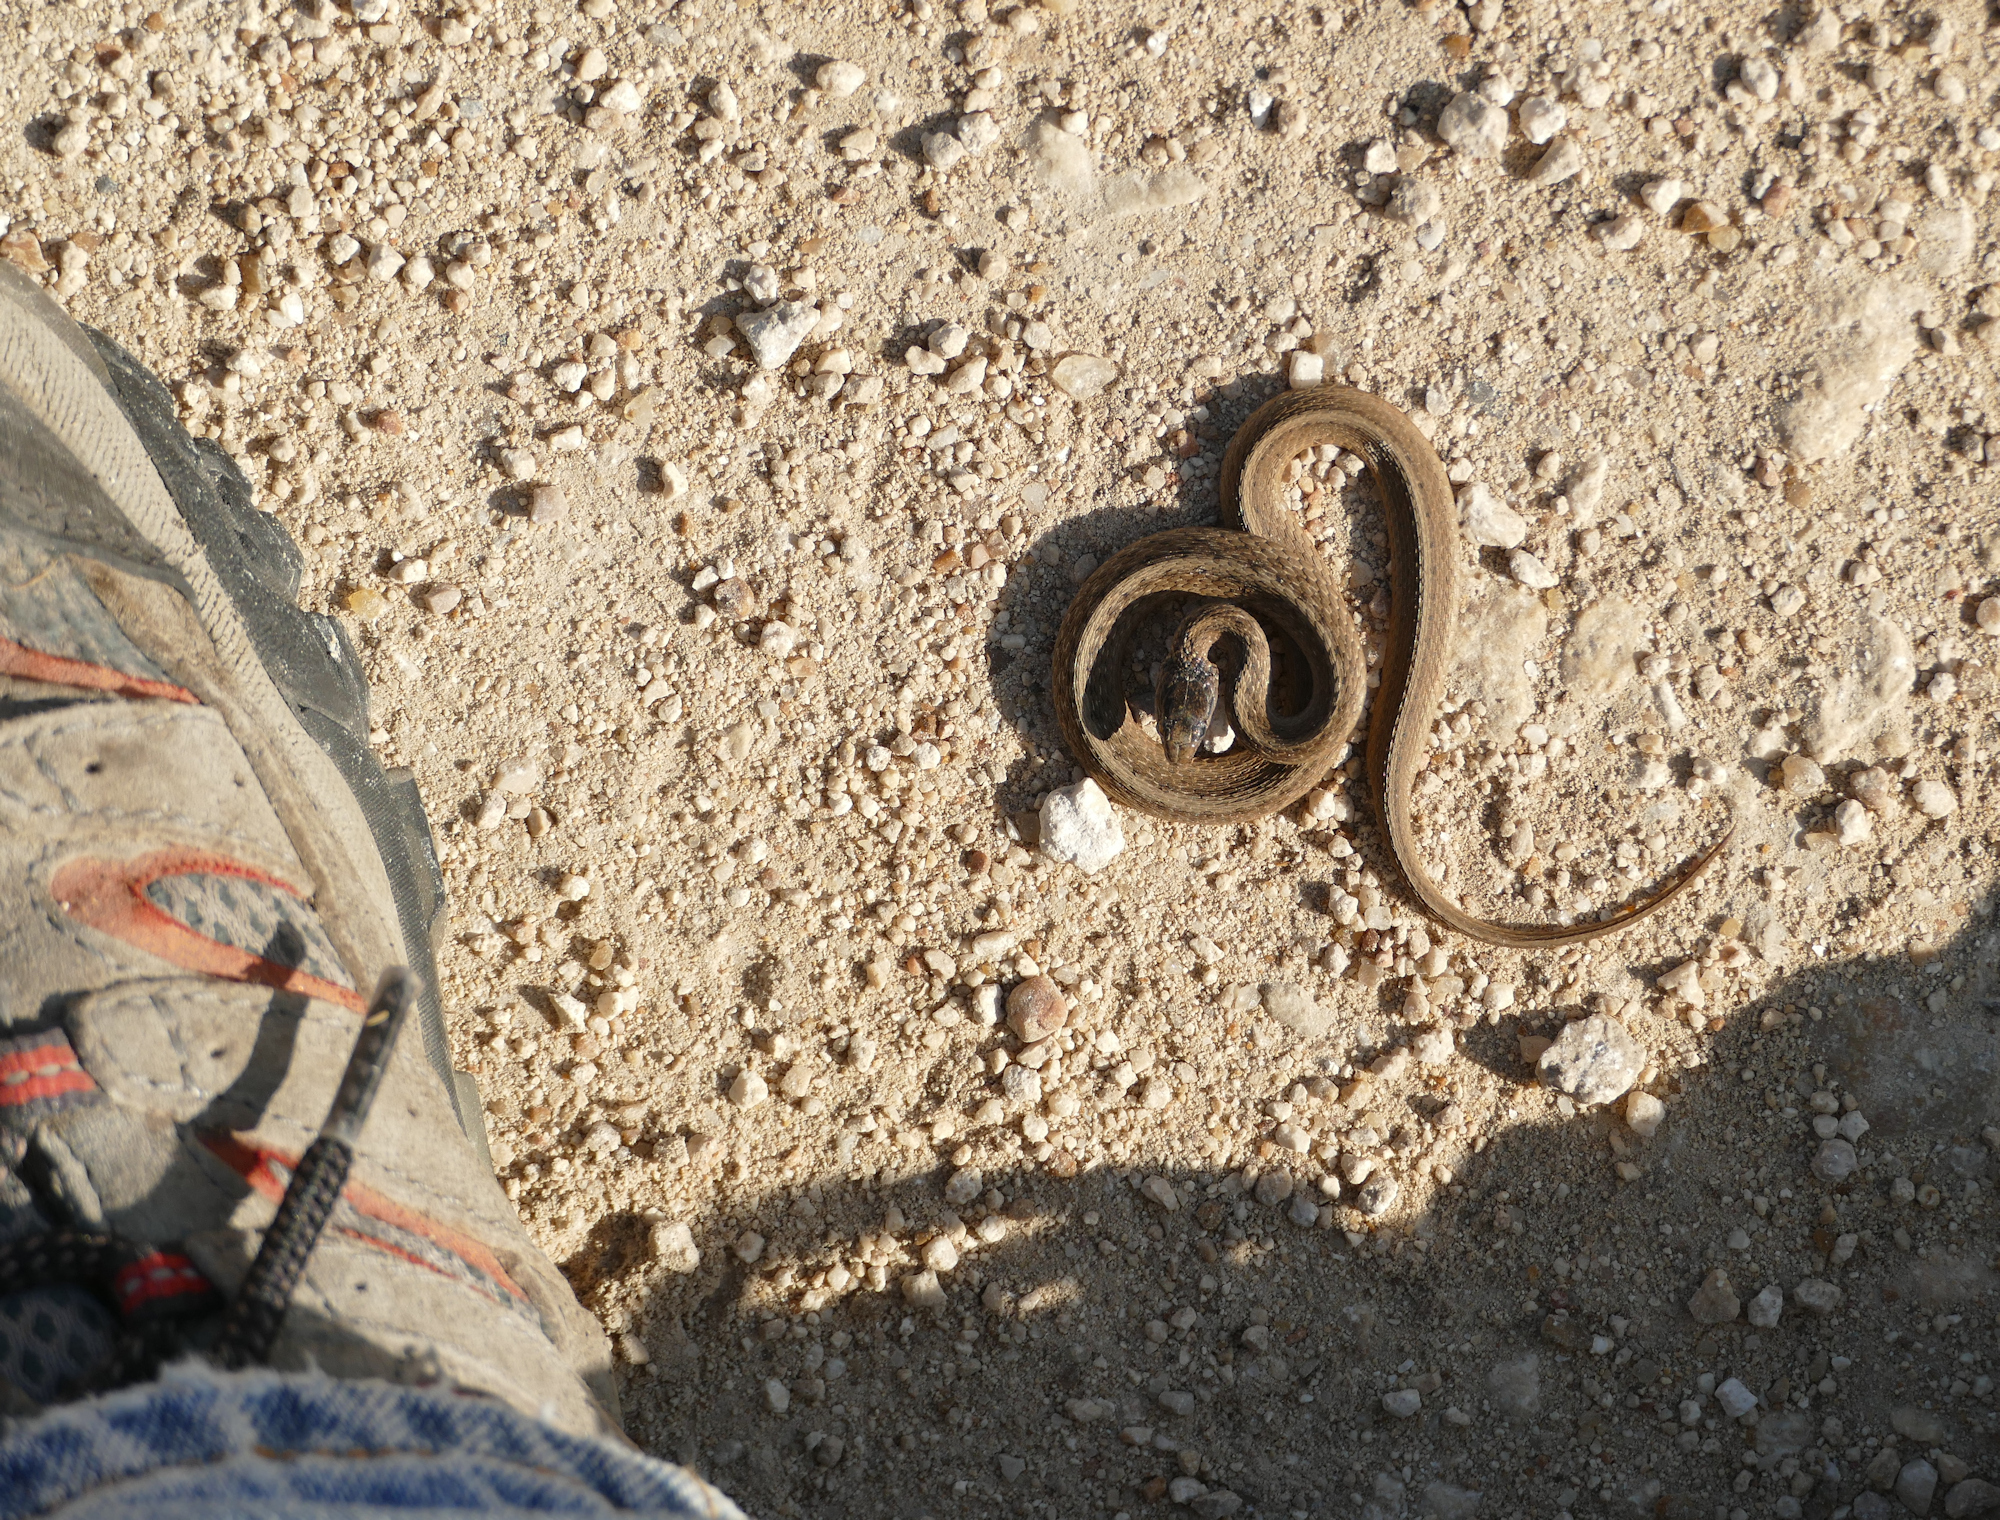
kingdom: Animalia
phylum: Chordata
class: Squamata
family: Colubridae
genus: Storeria
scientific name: Storeria dekayi
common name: (dekay’s) brown snake
